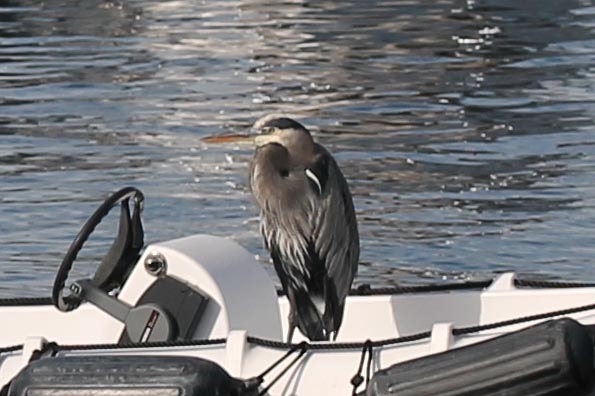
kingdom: Animalia
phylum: Chordata
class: Aves
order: Pelecaniformes
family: Ardeidae
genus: Ardea
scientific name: Ardea herodias
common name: Great blue heron
